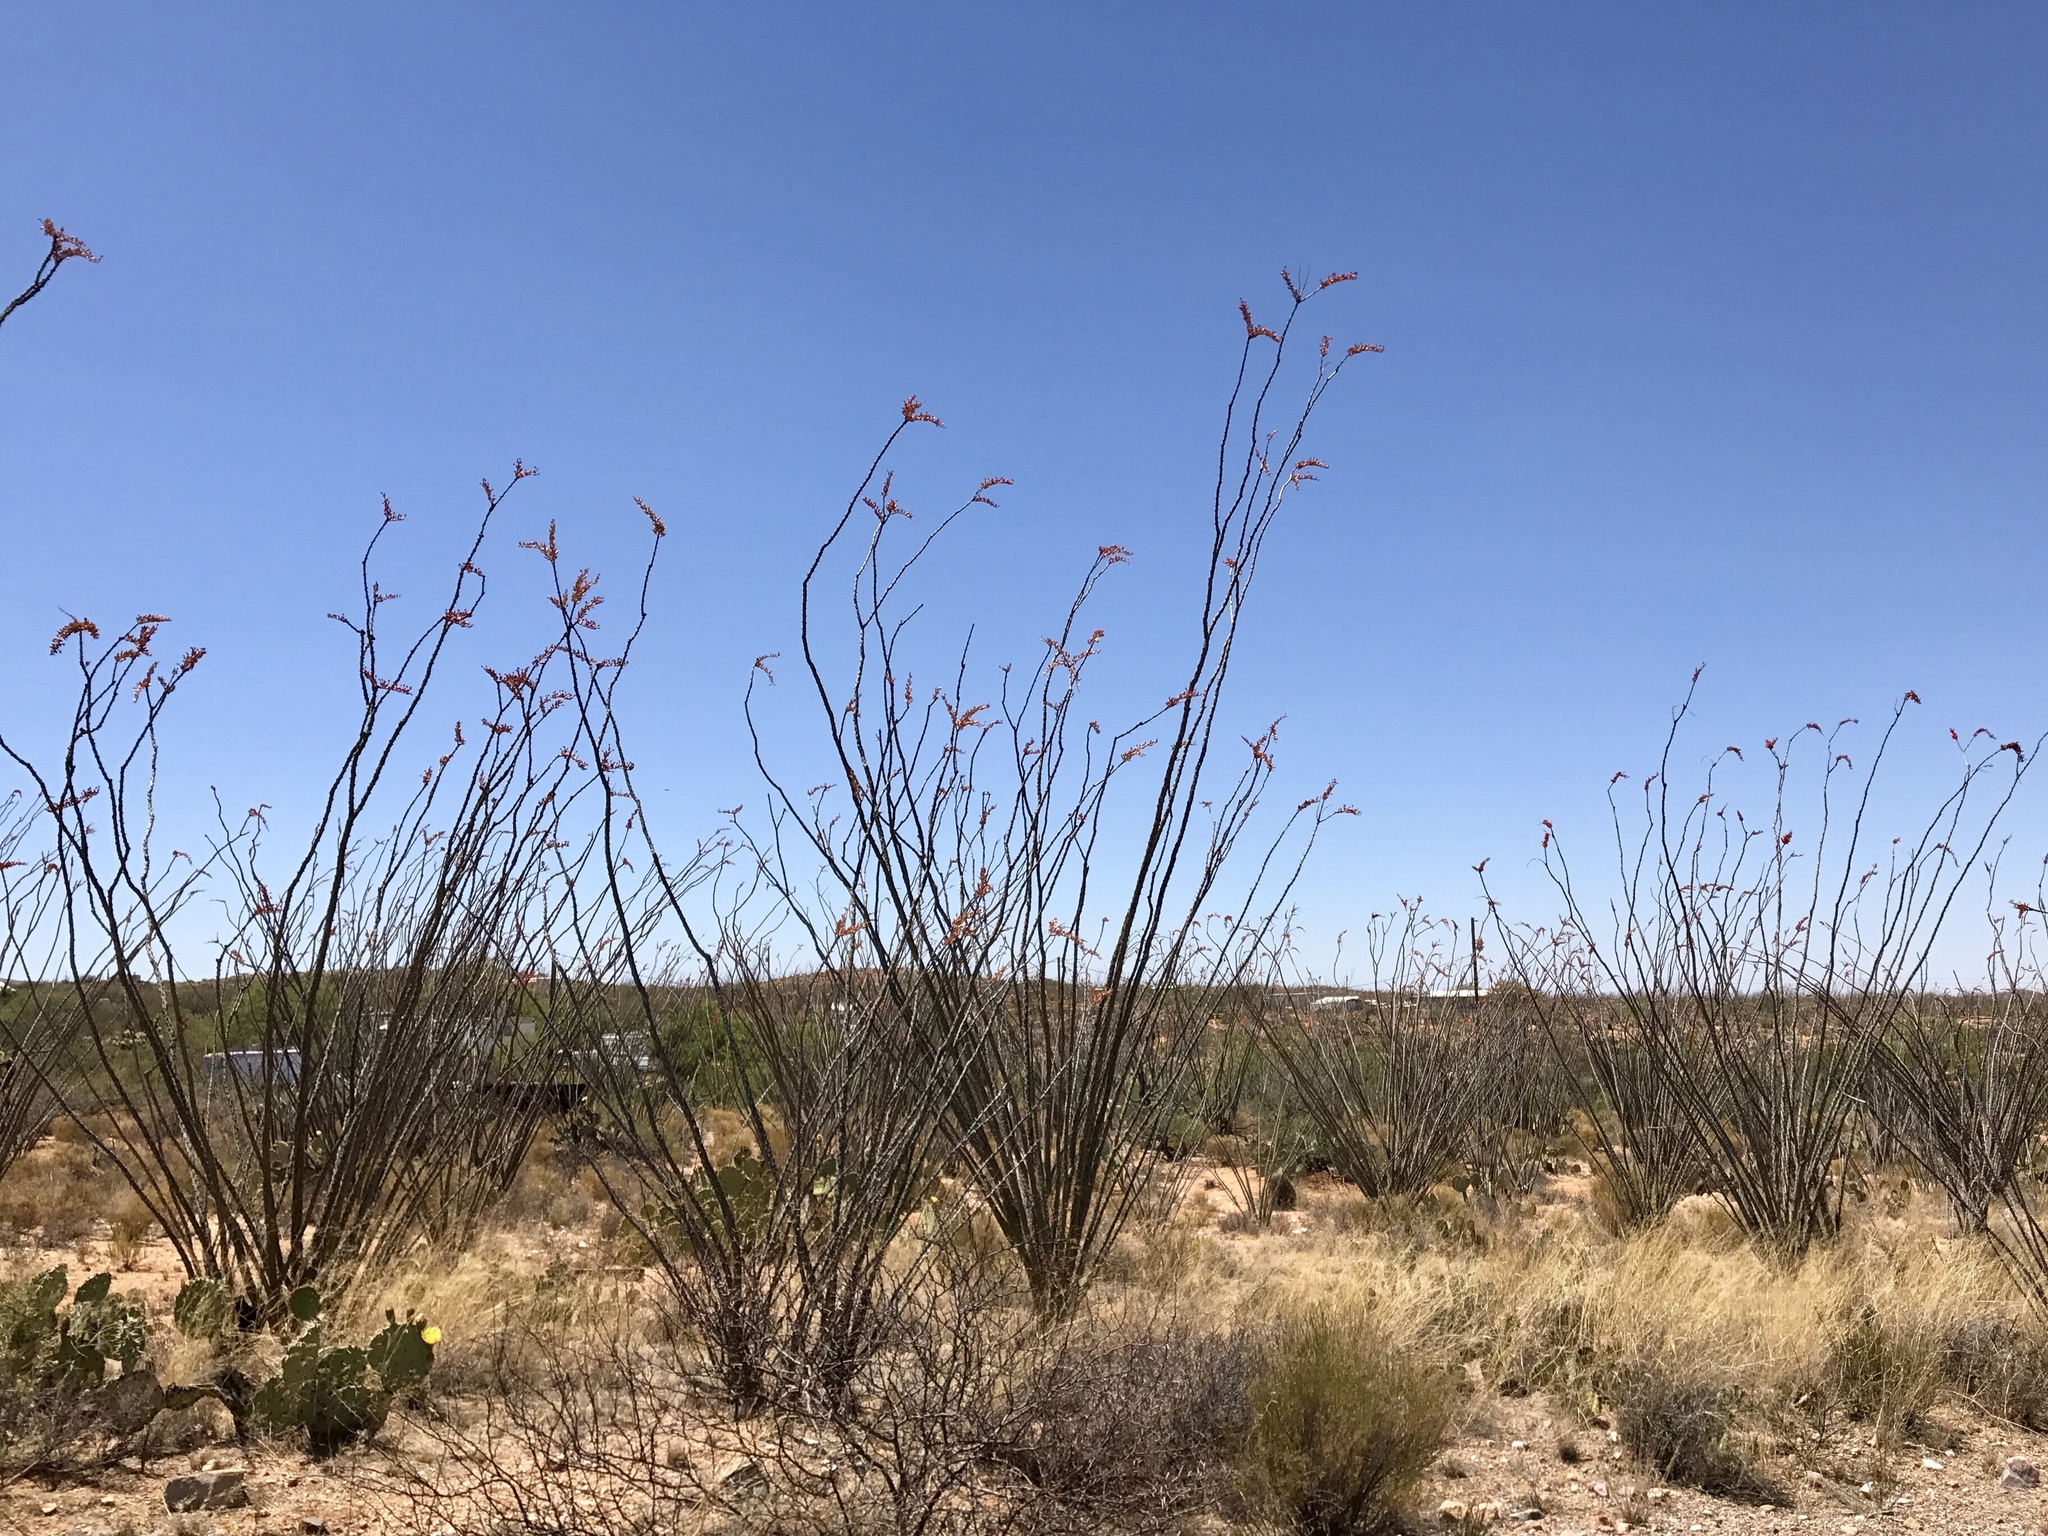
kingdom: Plantae
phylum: Tracheophyta
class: Magnoliopsida
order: Ericales
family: Fouquieriaceae
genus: Fouquieria
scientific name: Fouquieria splendens
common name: Vine-cactus
